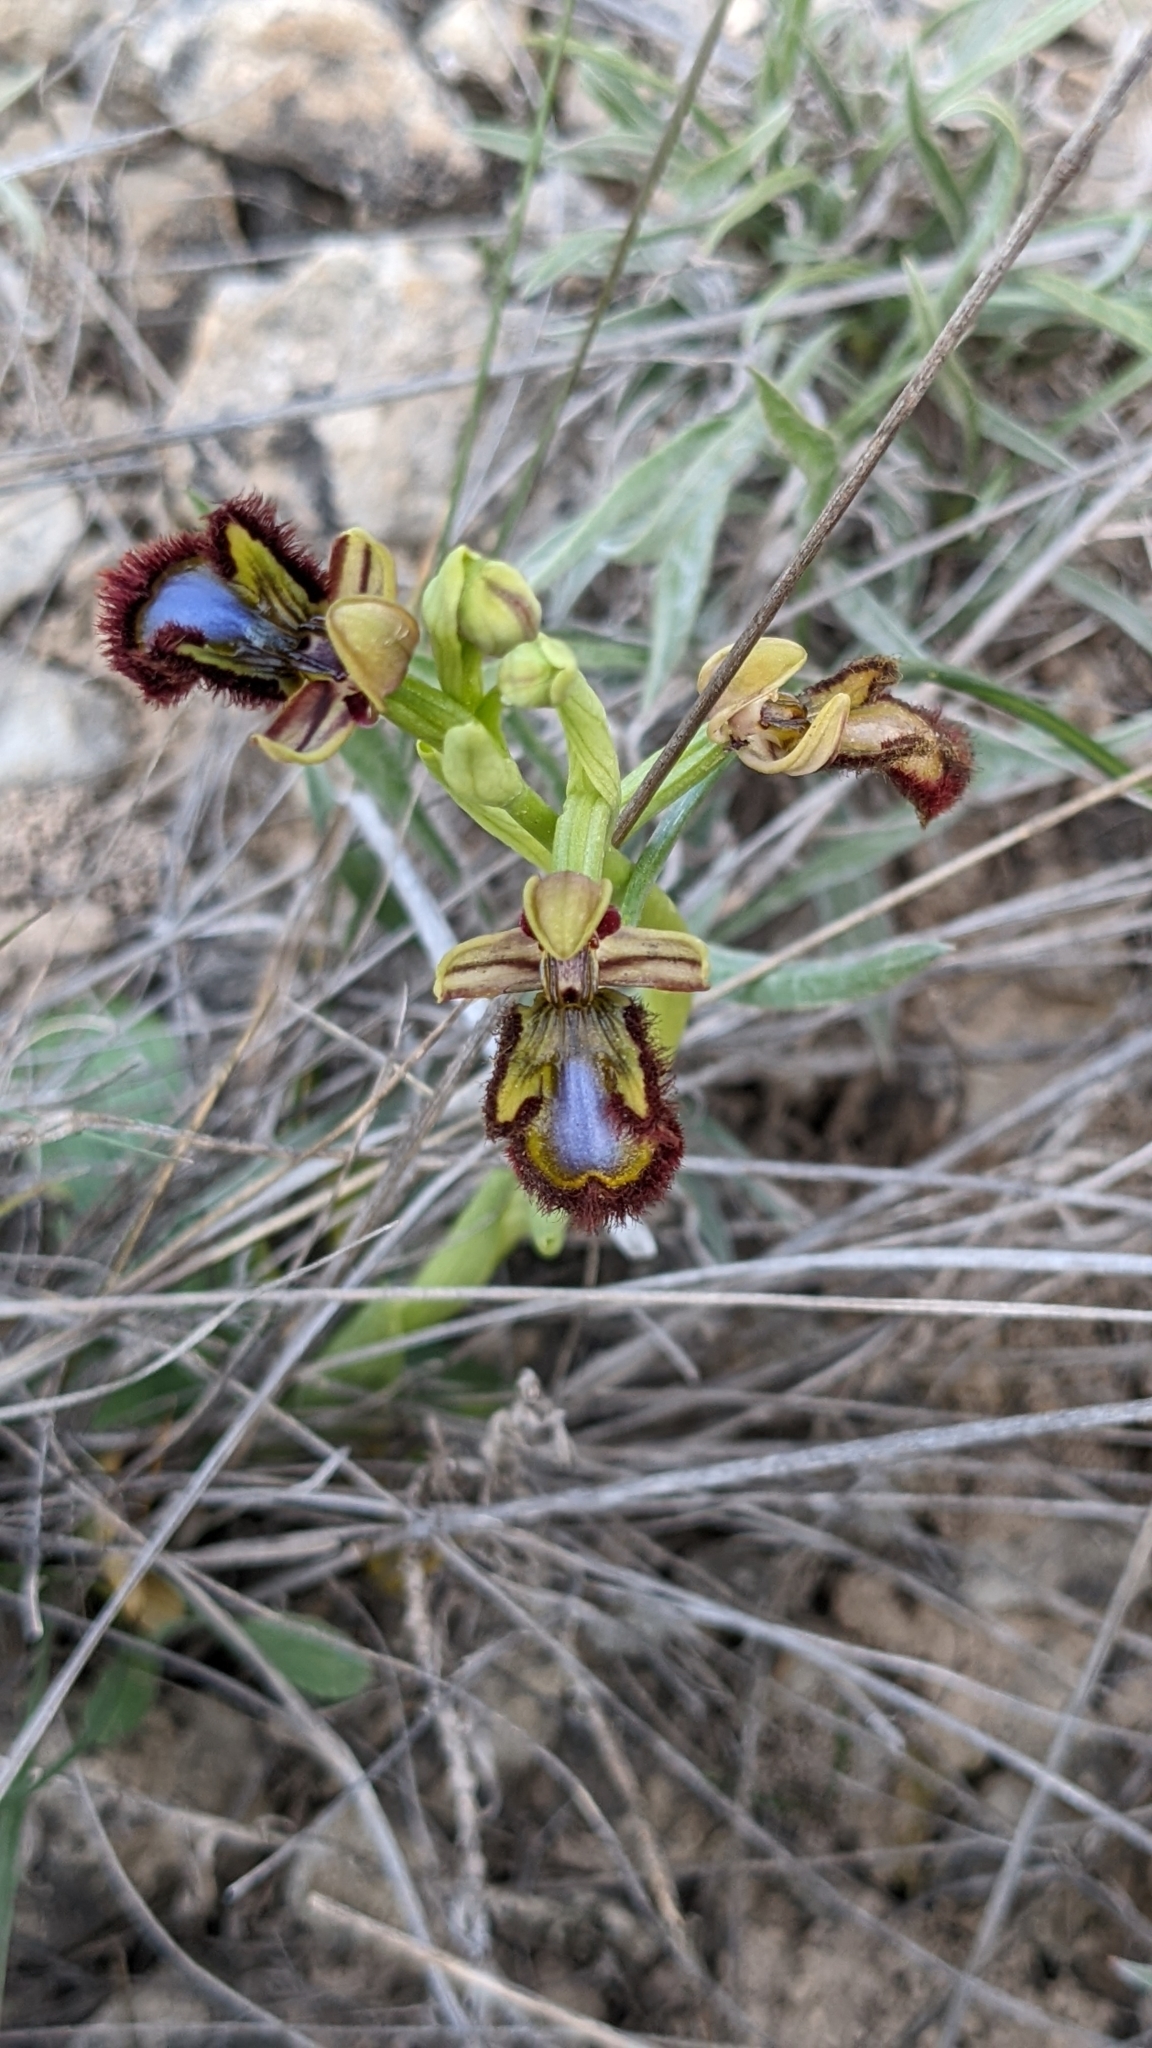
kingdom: Plantae
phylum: Tracheophyta
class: Liliopsida
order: Asparagales
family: Orchidaceae
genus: Ophrys
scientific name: Ophrys speculum
